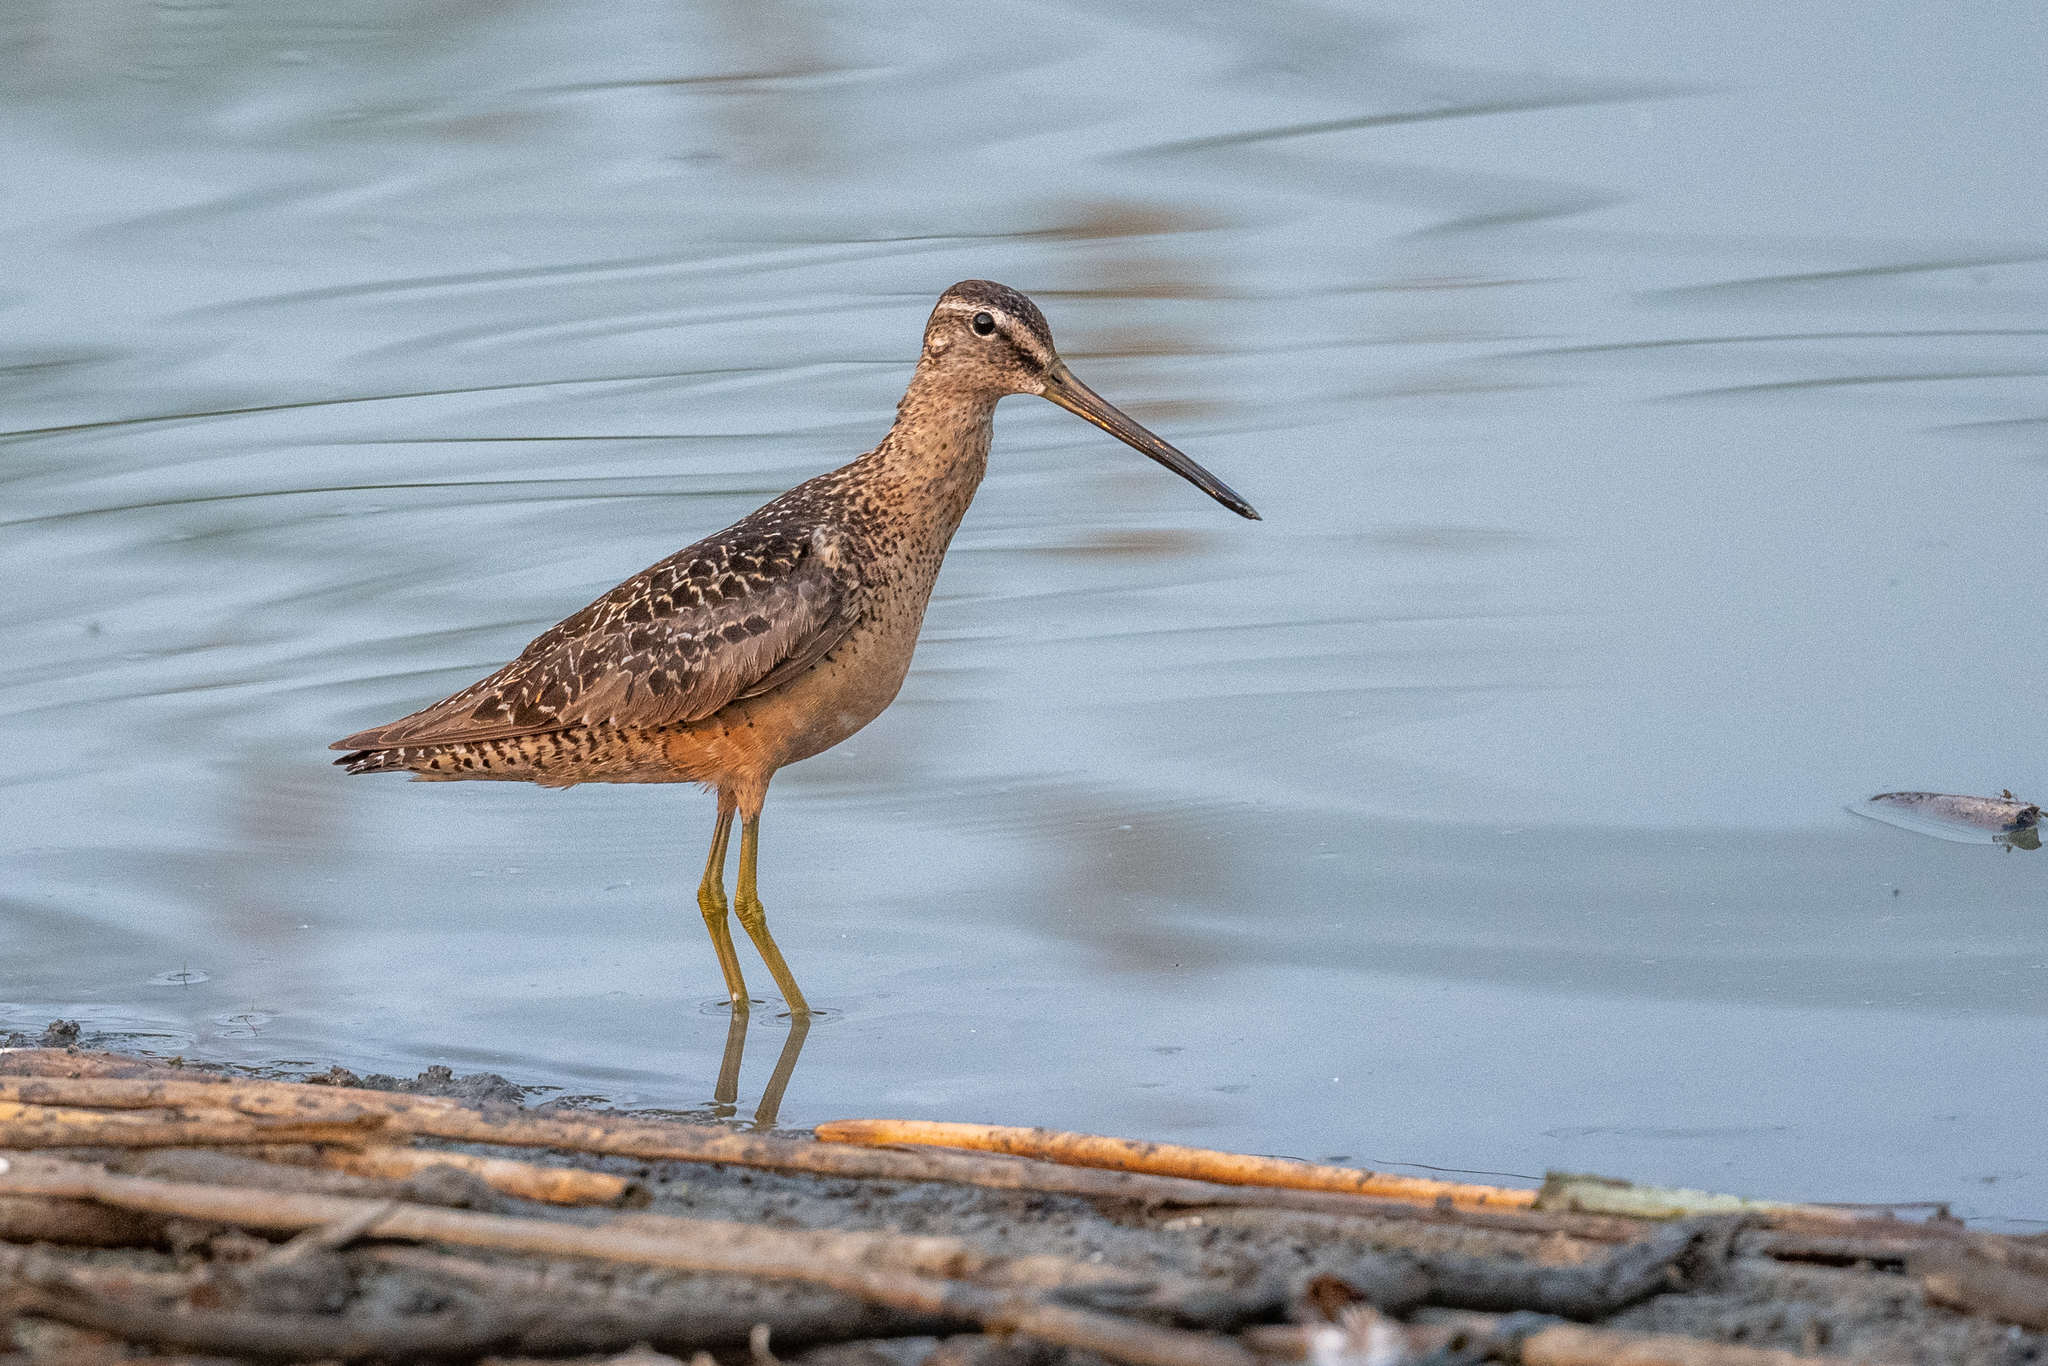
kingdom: Animalia
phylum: Chordata
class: Aves
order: Charadriiformes
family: Scolopacidae
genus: Limnodromus
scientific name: Limnodromus scolopaceus
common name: Long-billed dowitcher
